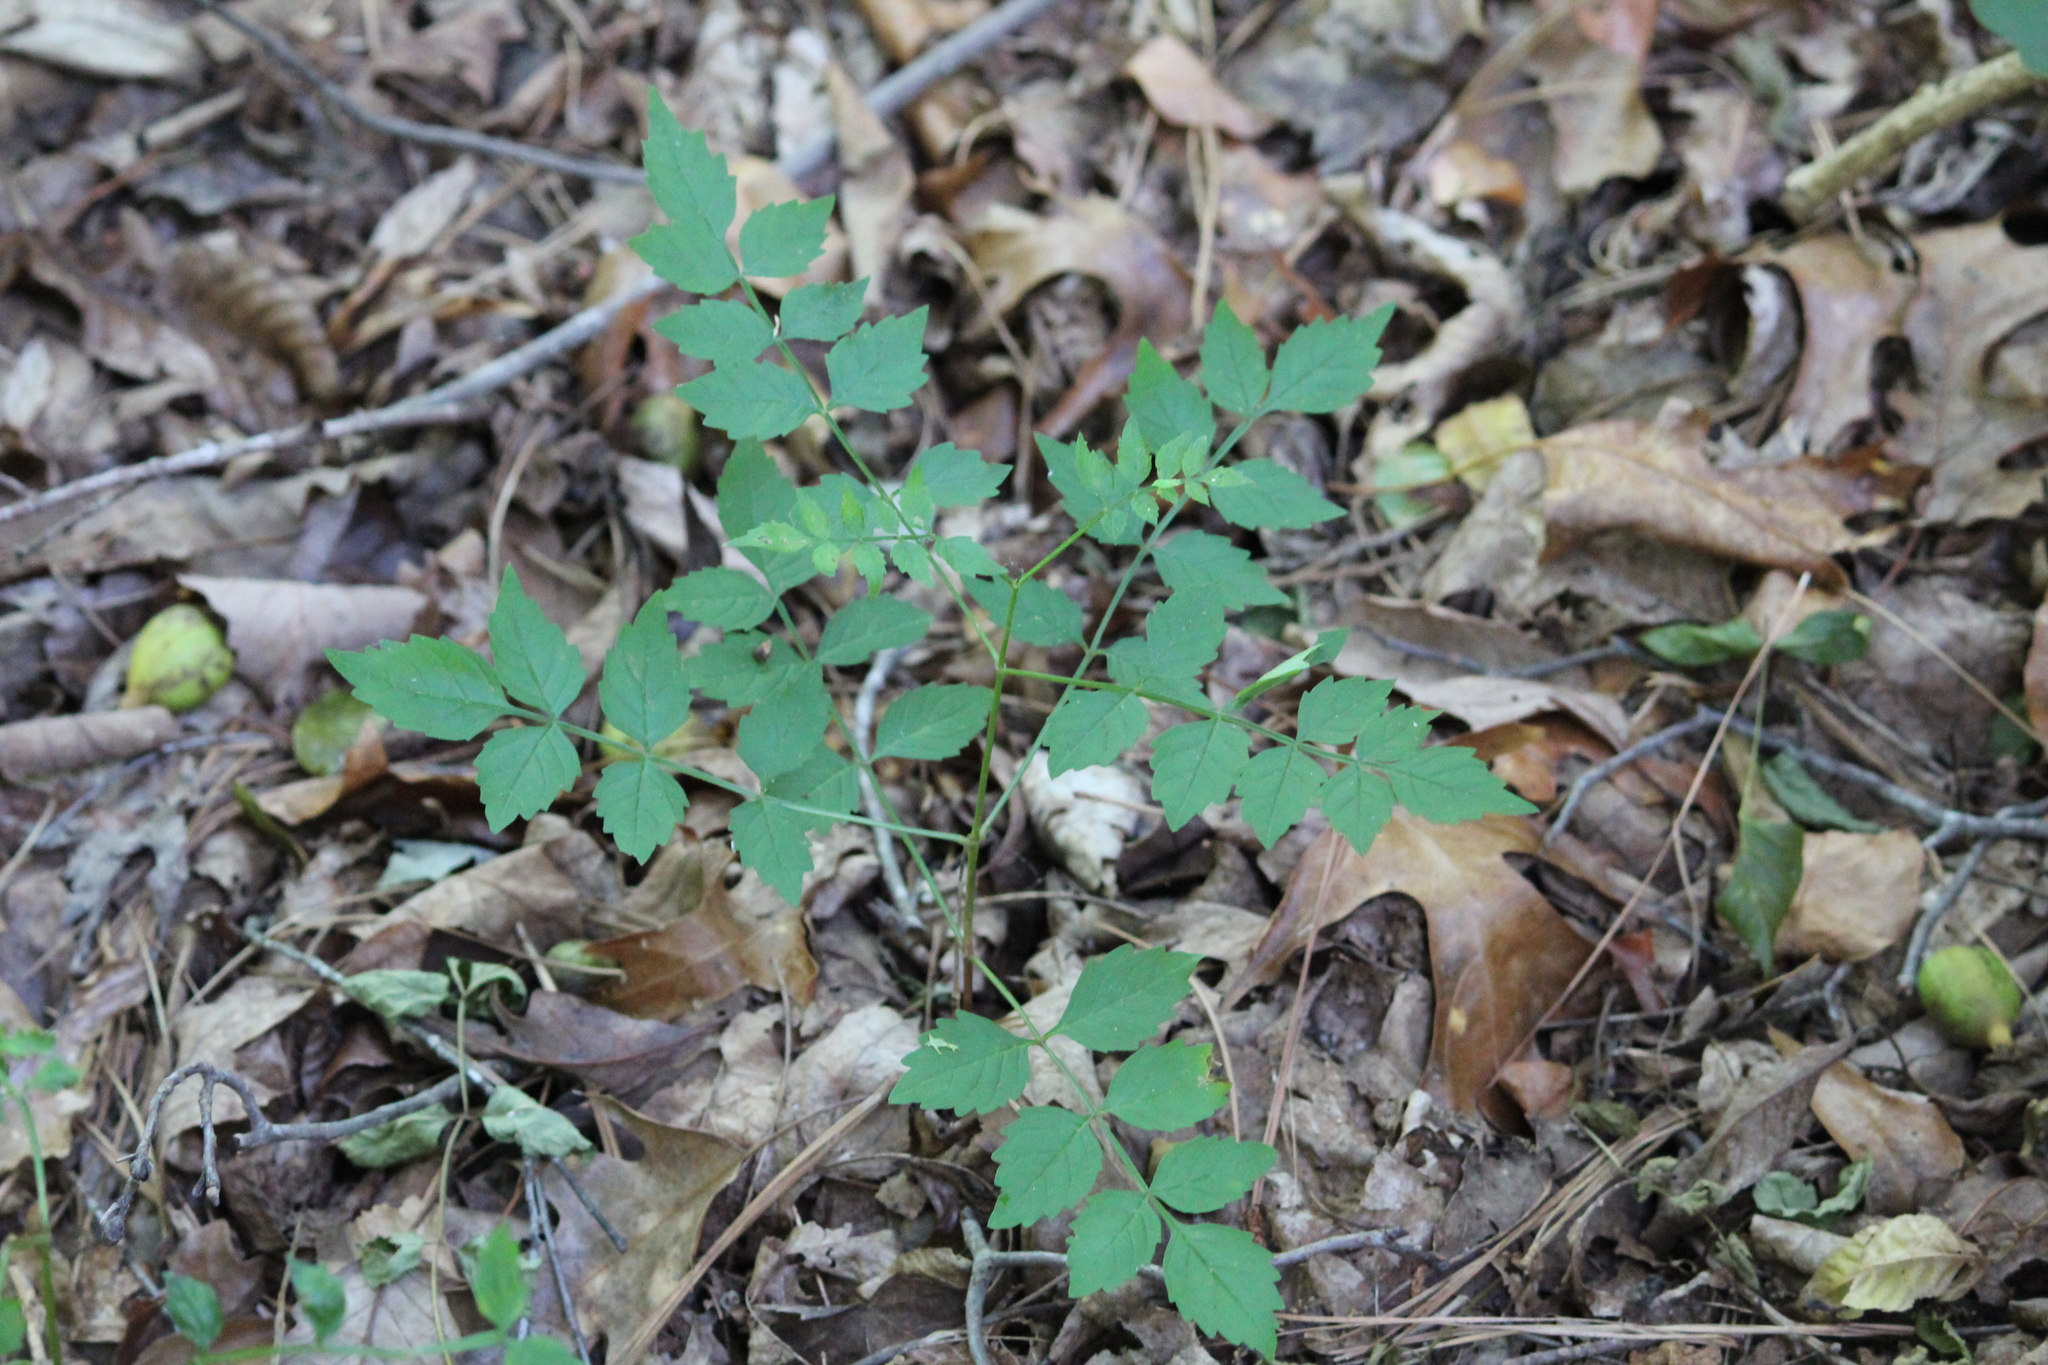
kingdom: Plantae
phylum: Tracheophyta
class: Magnoliopsida
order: Lamiales
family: Bignoniaceae
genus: Campsis
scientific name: Campsis radicans
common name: Trumpet-creeper
